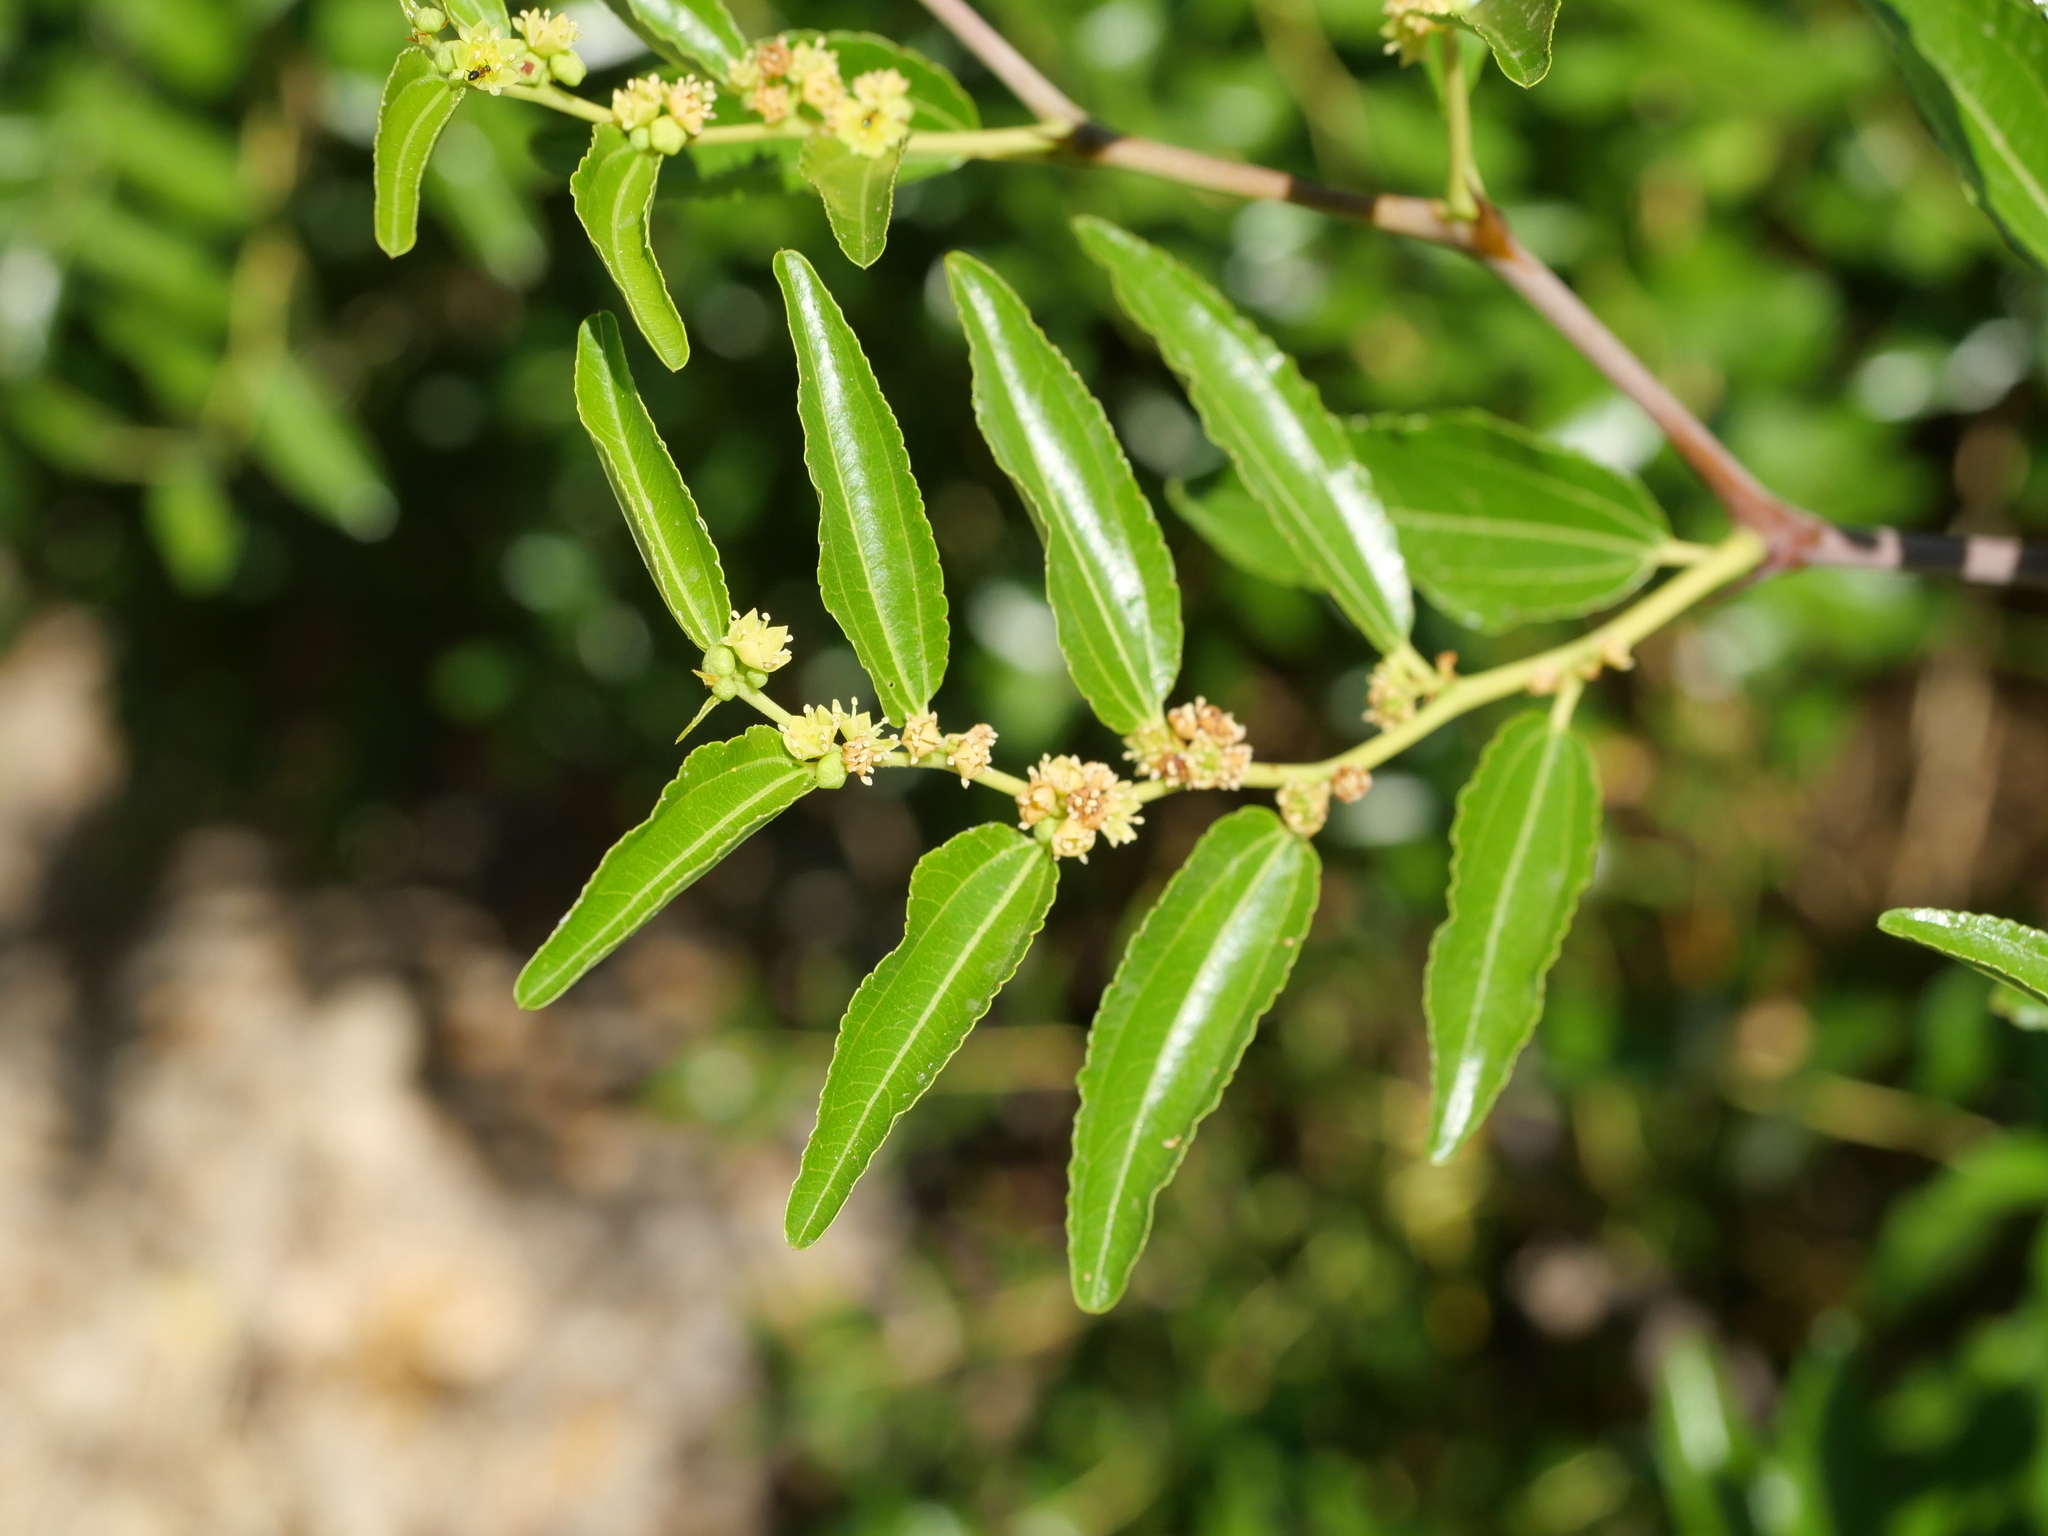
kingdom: Plantae
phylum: Tracheophyta
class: Magnoliopsida
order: Rosales
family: Rhamnaceae
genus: Paliurus
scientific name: Paliurus spina-christi
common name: Jeruselem thorn
